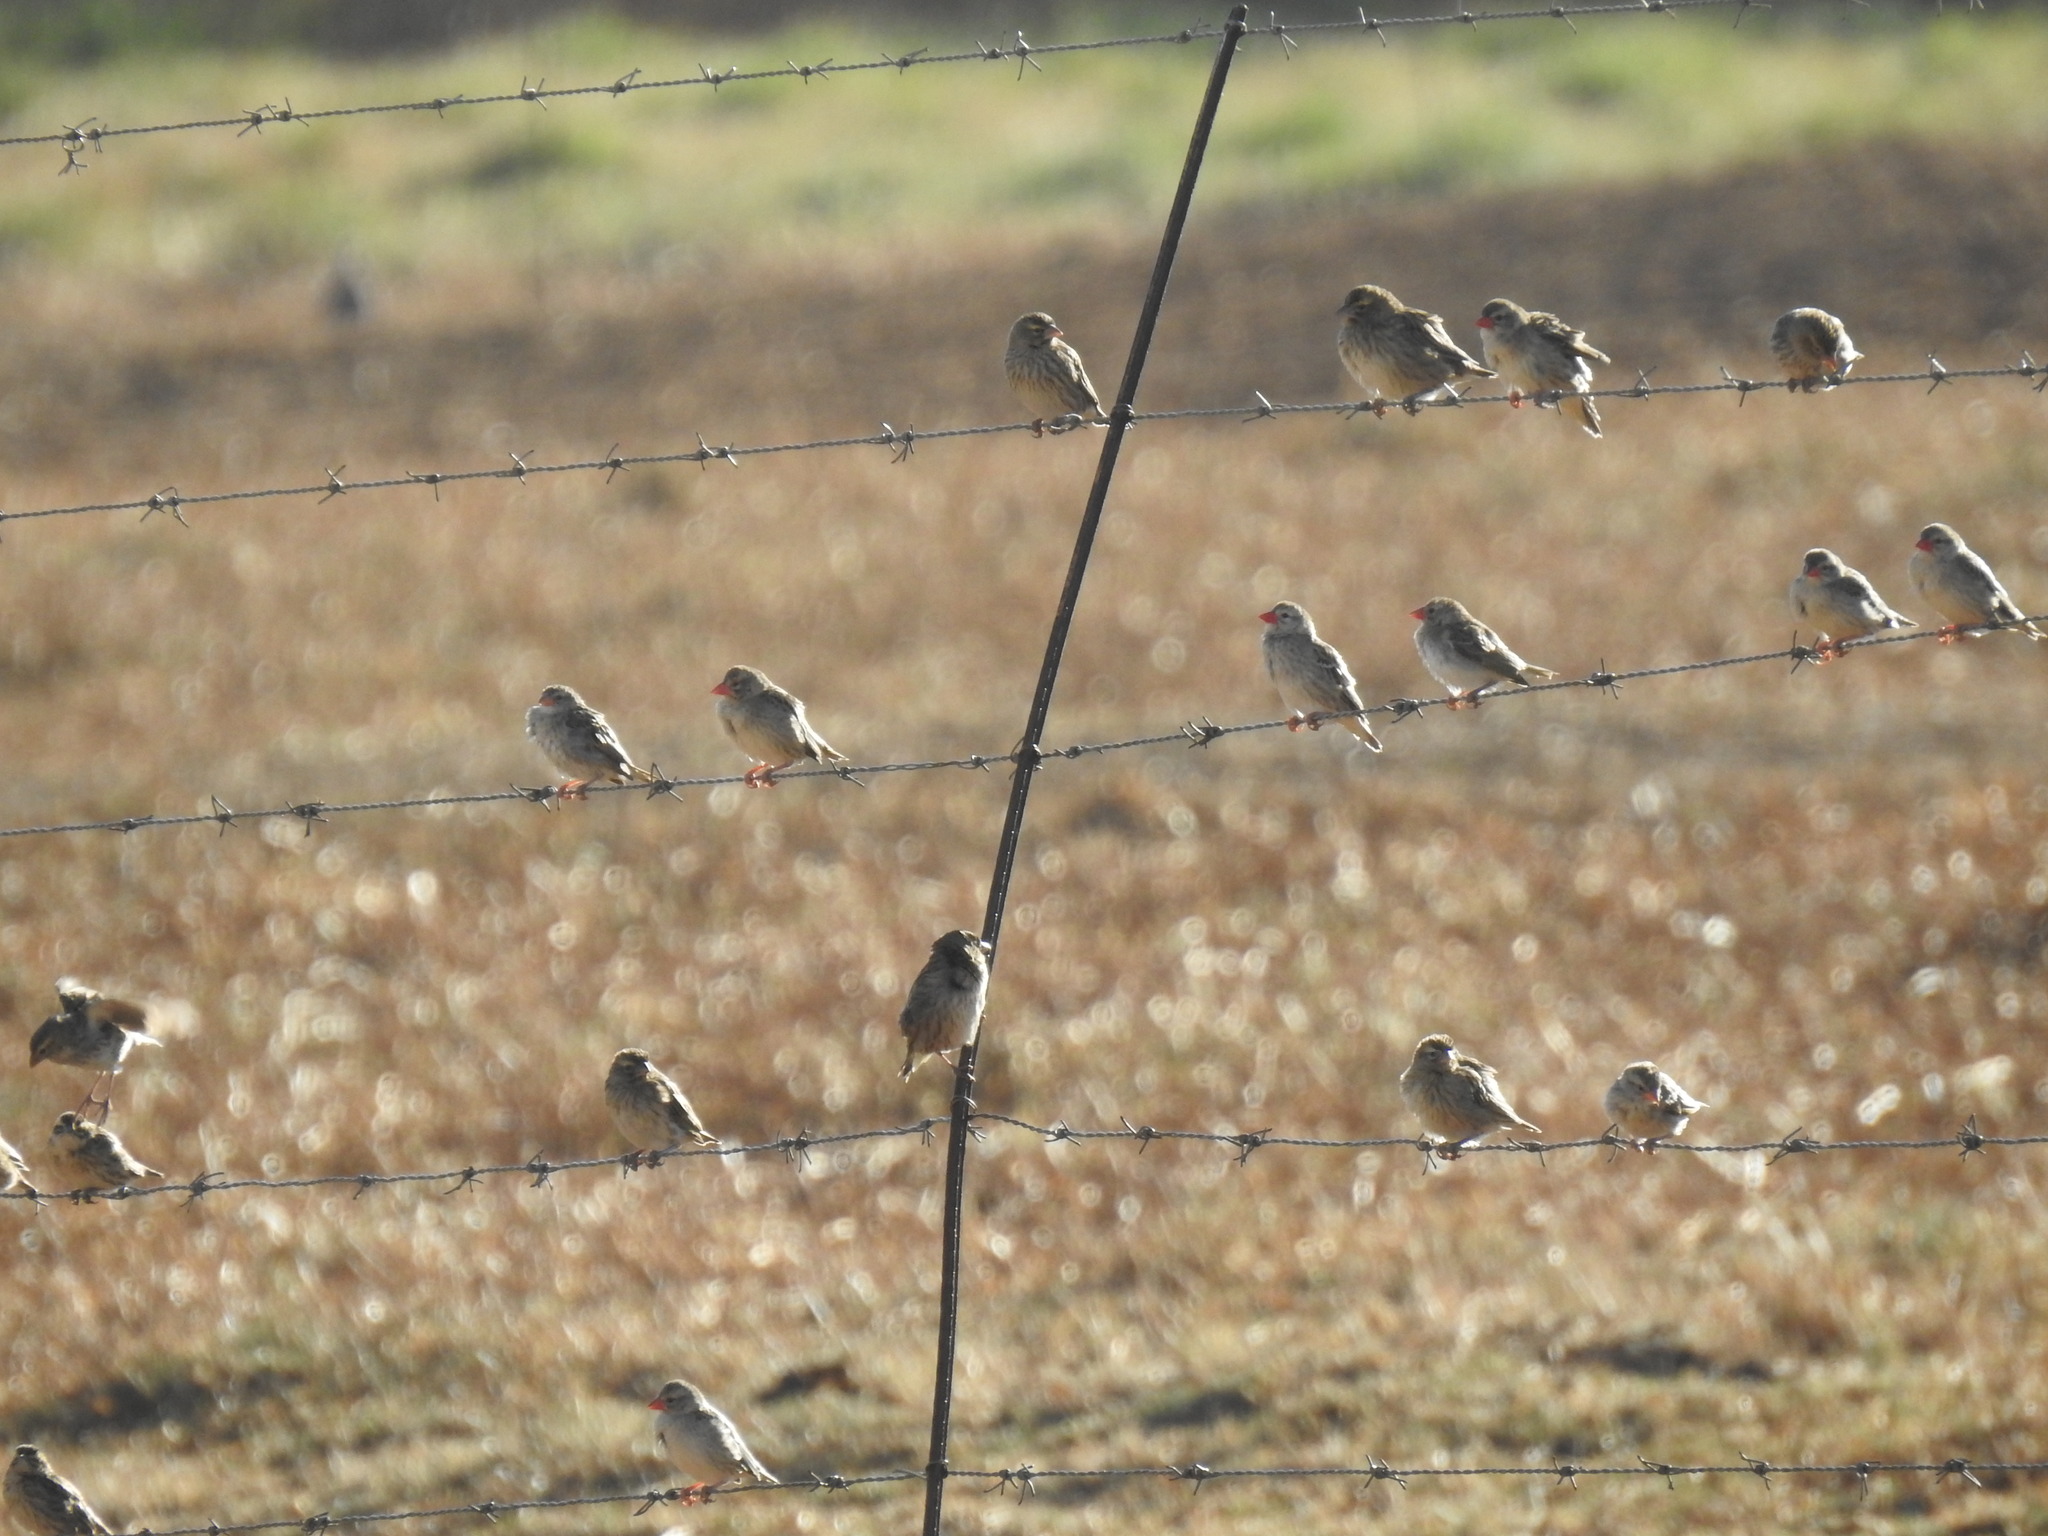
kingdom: Animalia
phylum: Chordata
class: Aves
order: Passeriformes
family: Fringillidae
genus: Crithagra
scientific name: Crithagra atrogularis
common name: Black-throated canary
